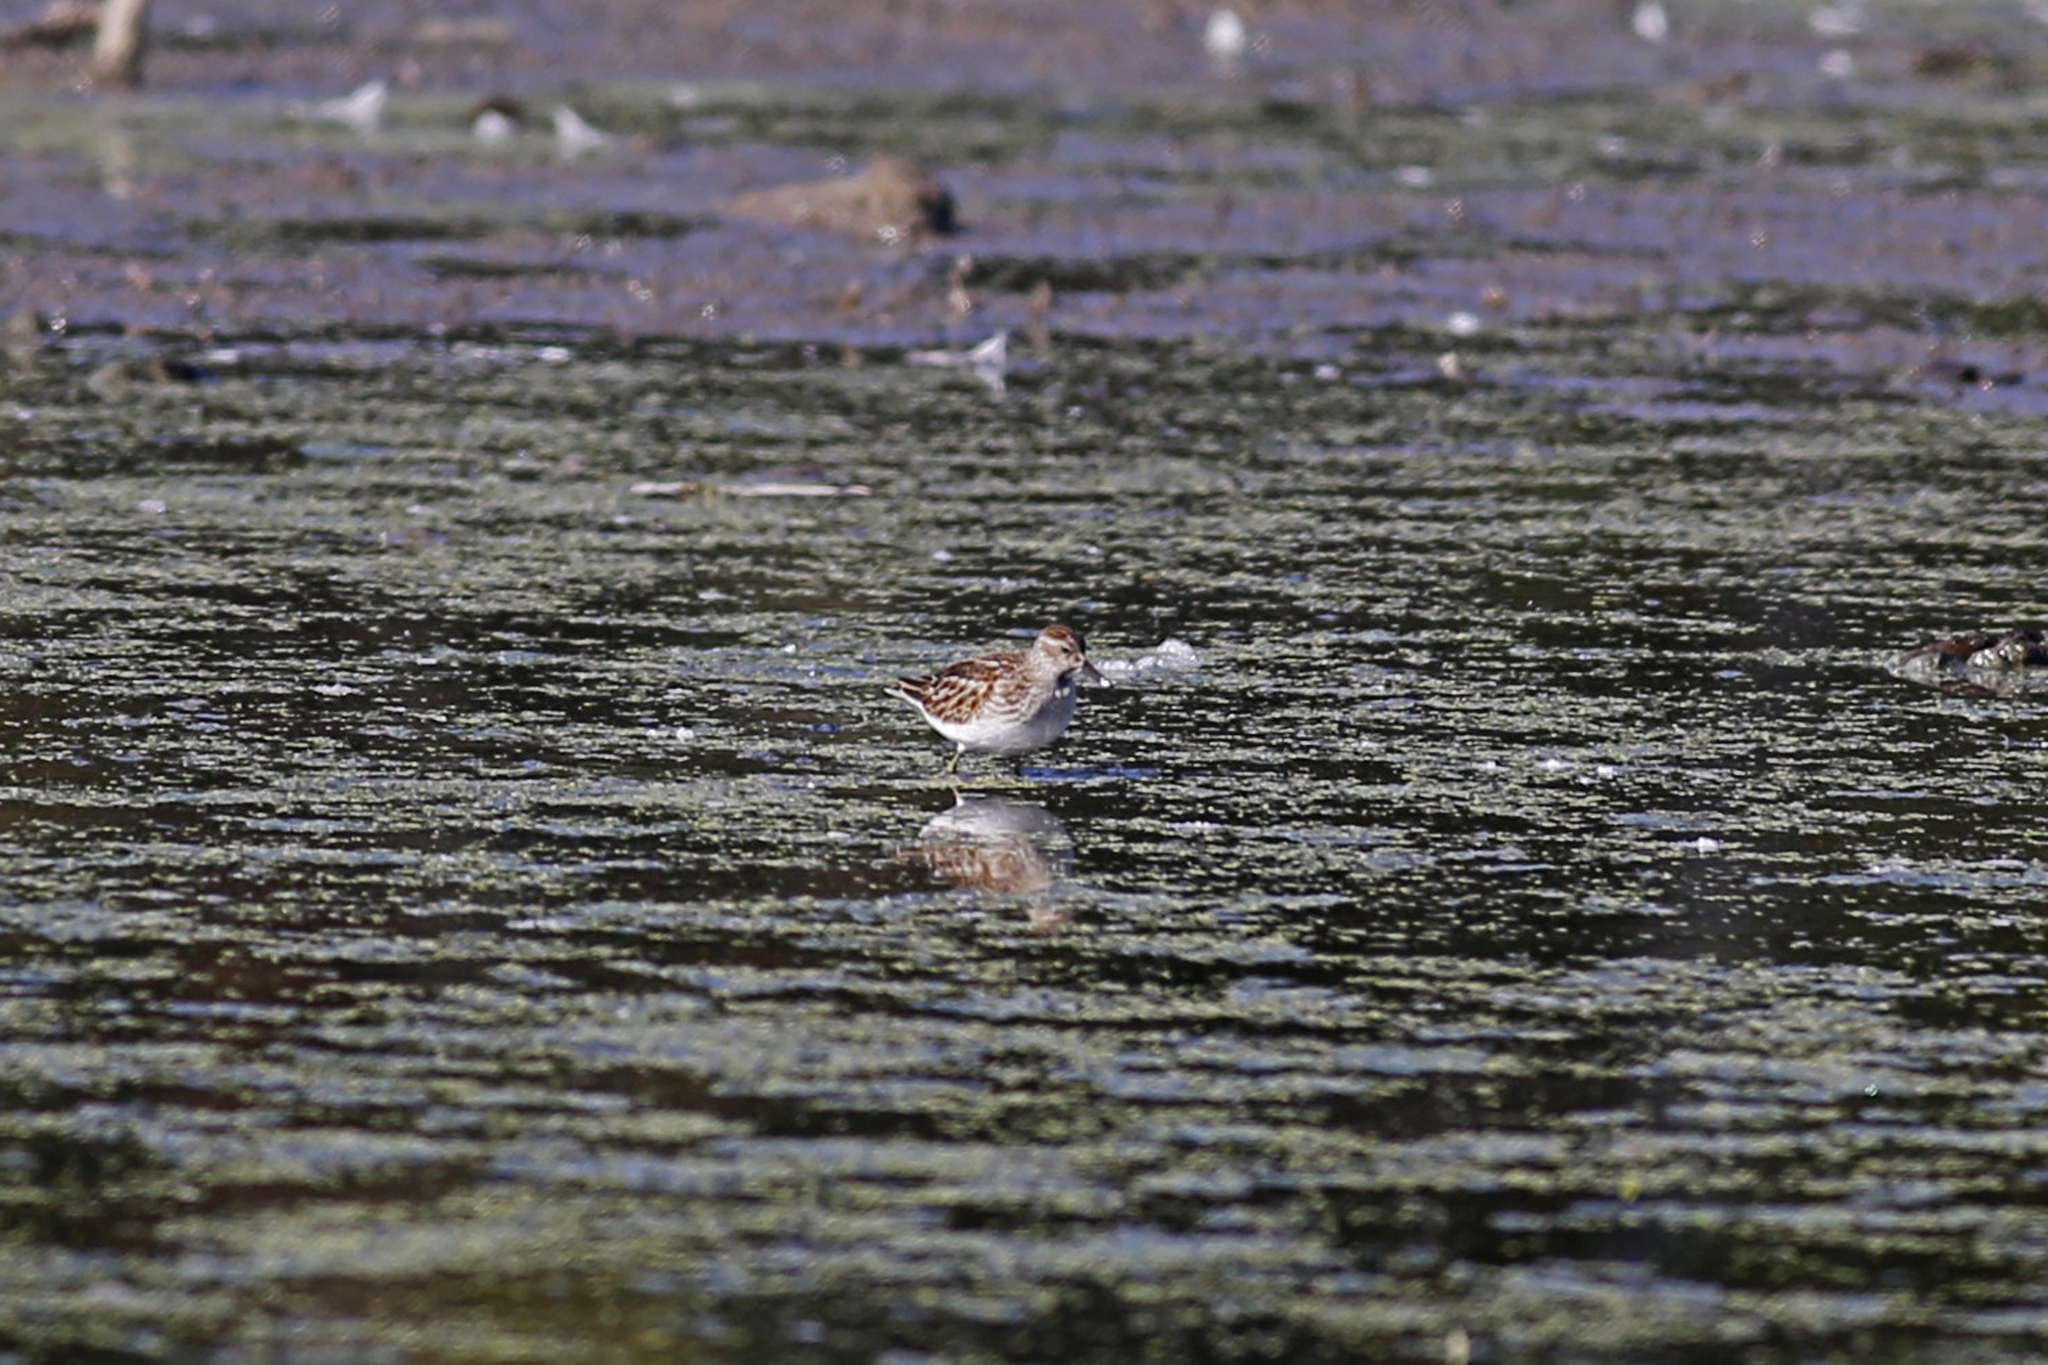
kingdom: Animalia
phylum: Chordata
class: Aves
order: Charadriiformes
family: Scolopacidae
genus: Calidris
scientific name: Calidris minutilla
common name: Least sandpiper
